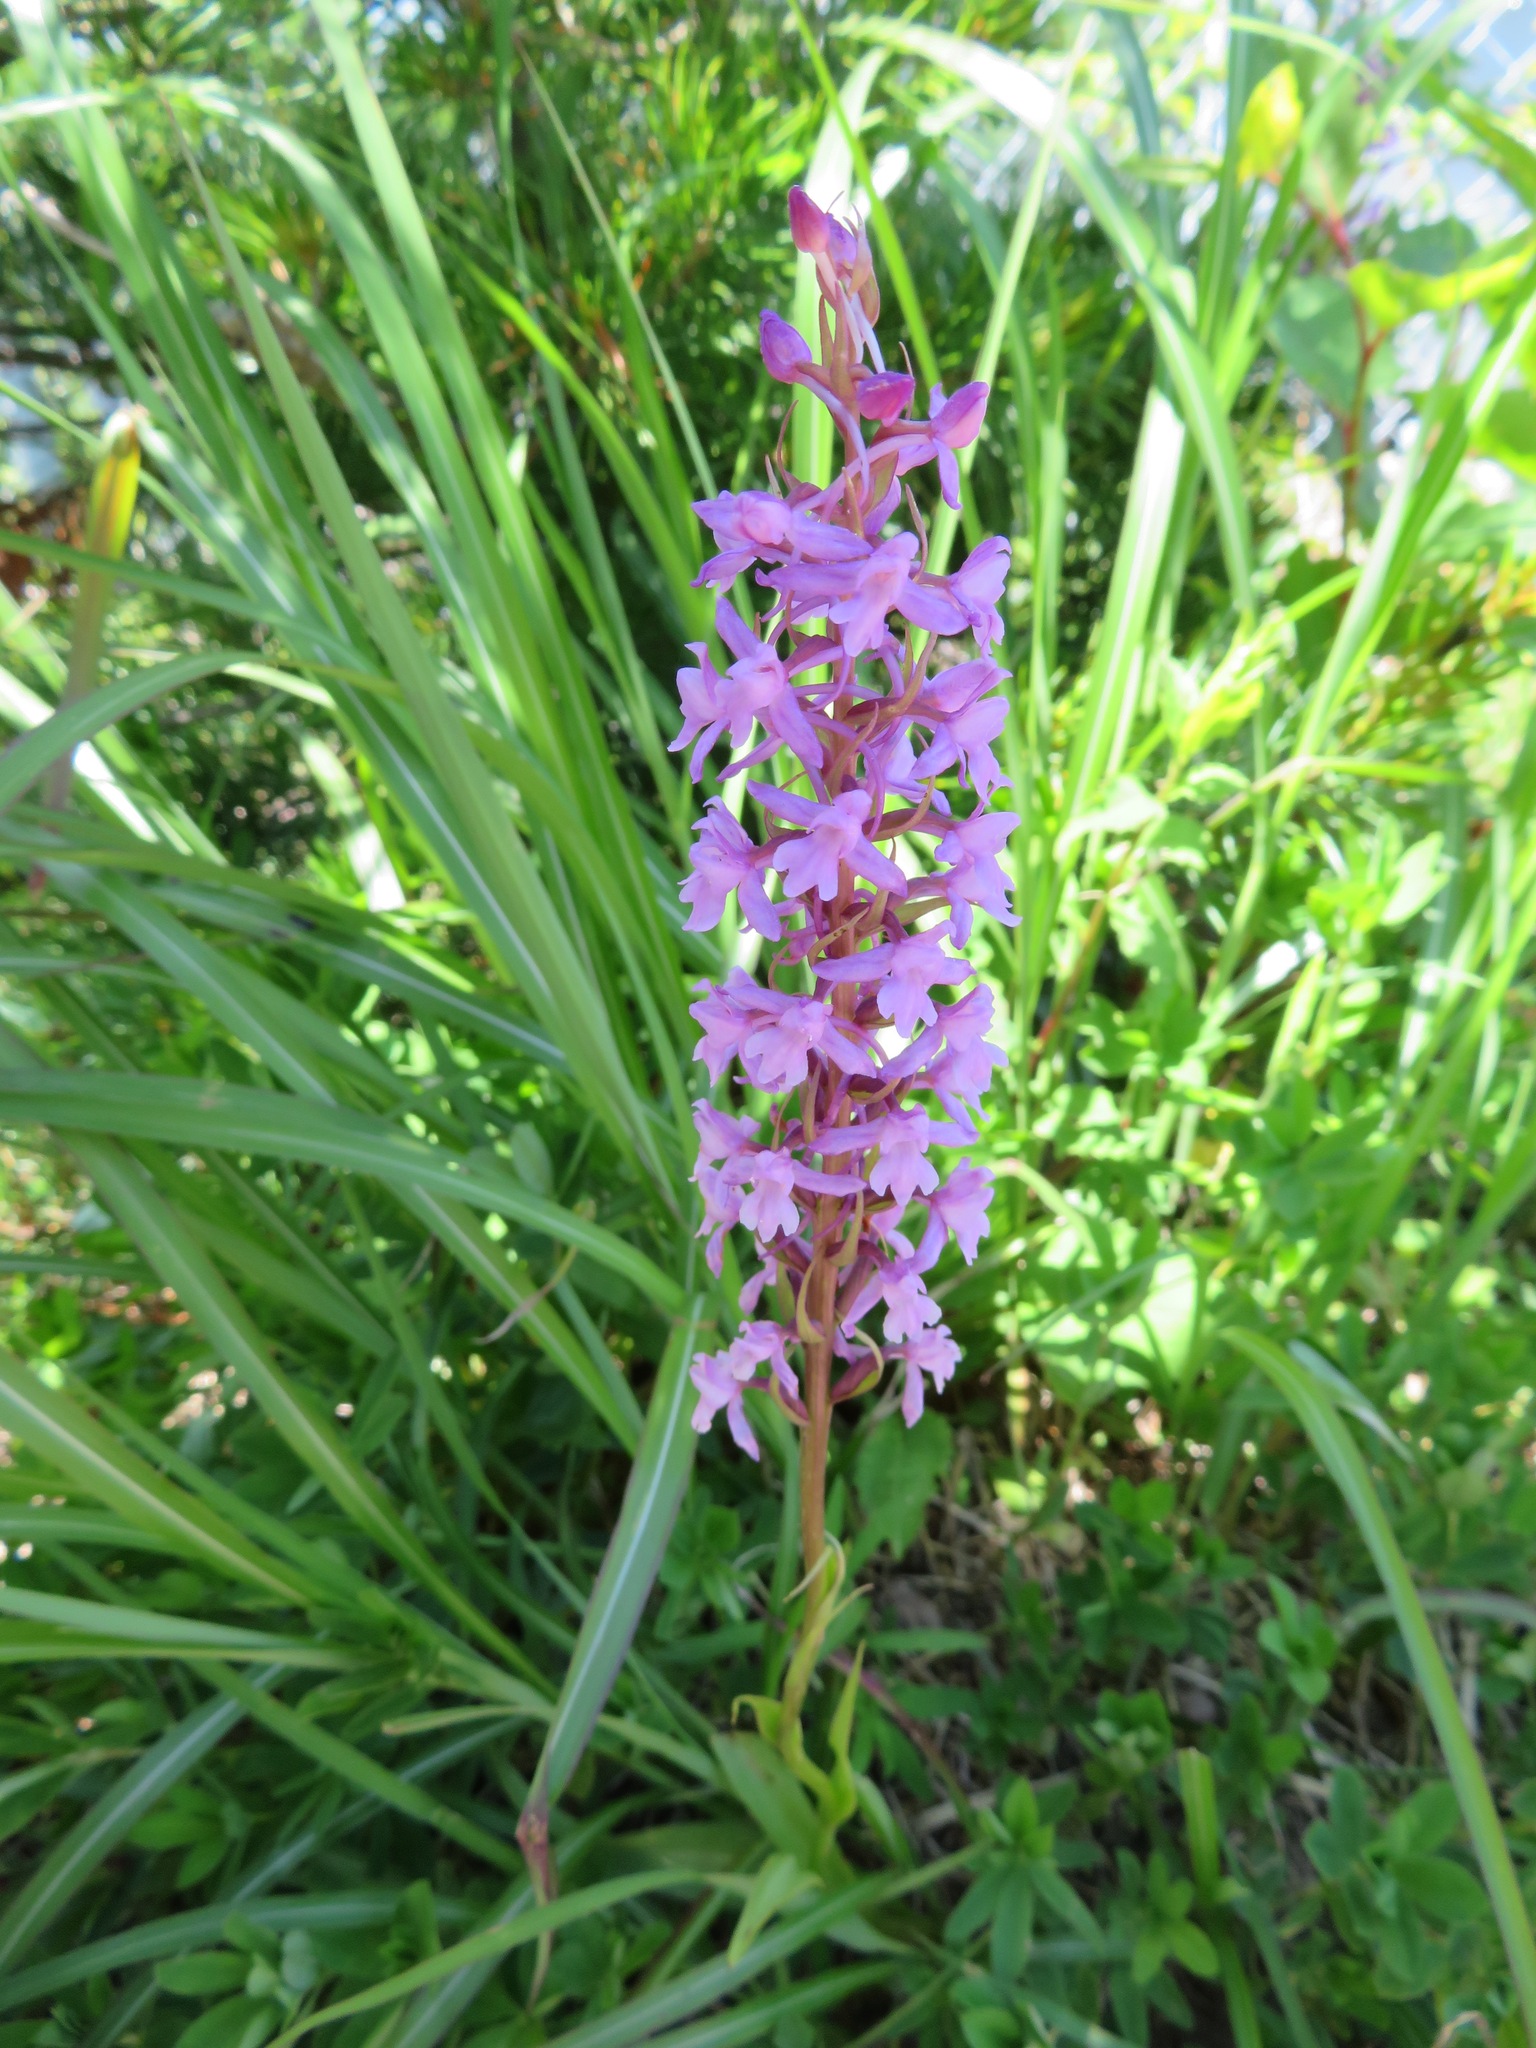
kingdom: Plantae
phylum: Tracheophyta
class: Liliopsida
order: Asparagales
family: Orchidaceae
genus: Gymnadenia
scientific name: Gymnadenia conopsea
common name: Fragrant orchid
